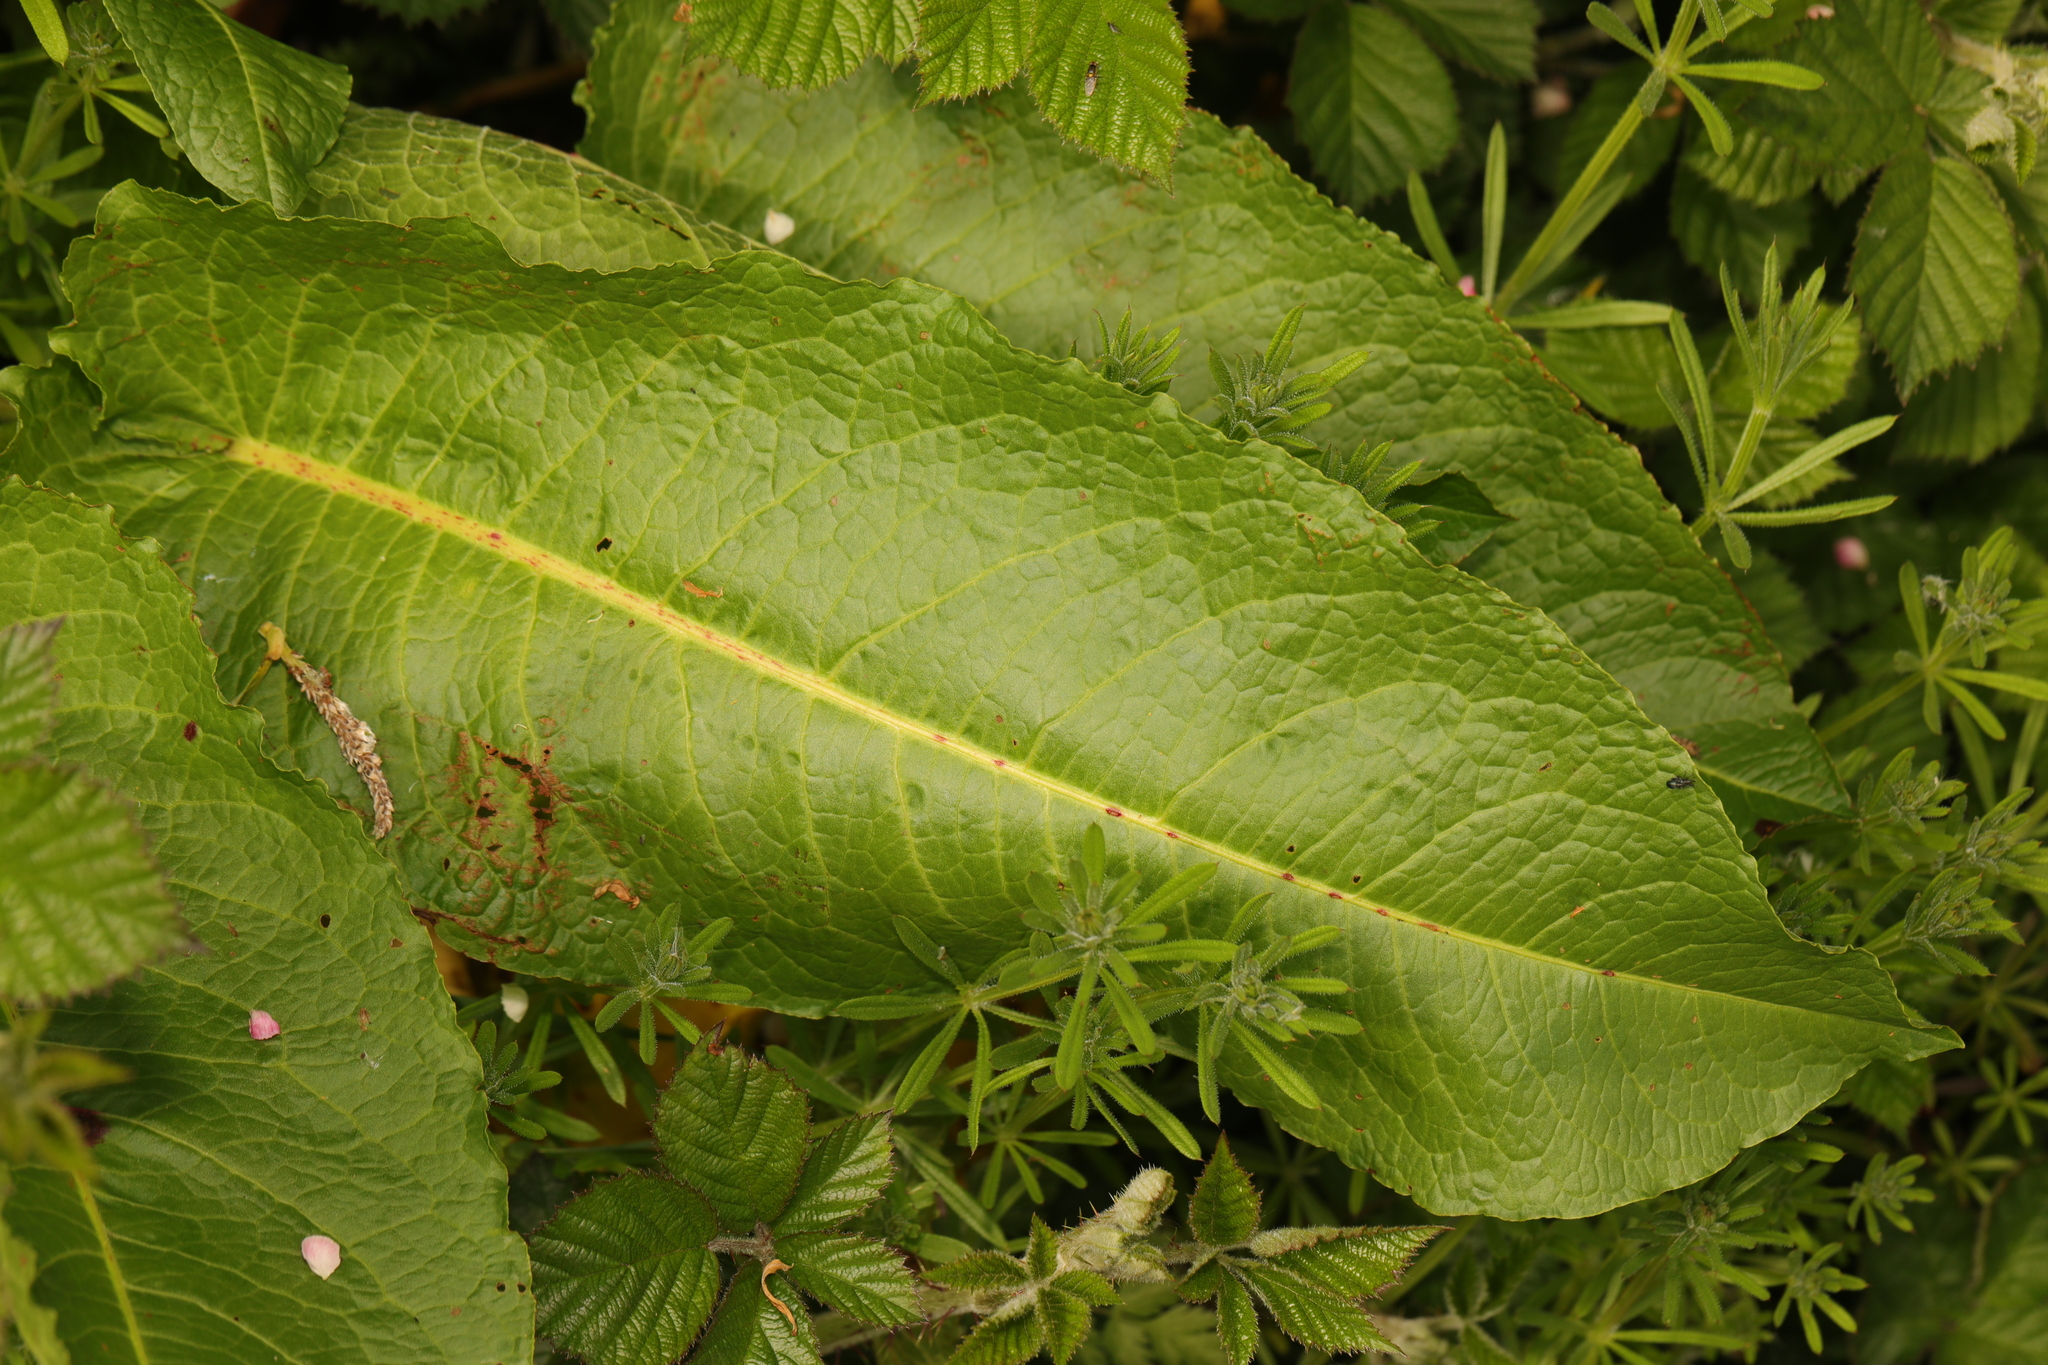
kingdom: Plantae
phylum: Tracheophyta
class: Magnoliopsida
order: Caryophyllales
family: Polygonaceae
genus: Rumex
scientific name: Rumex obtusifolius
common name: Bitter dock
